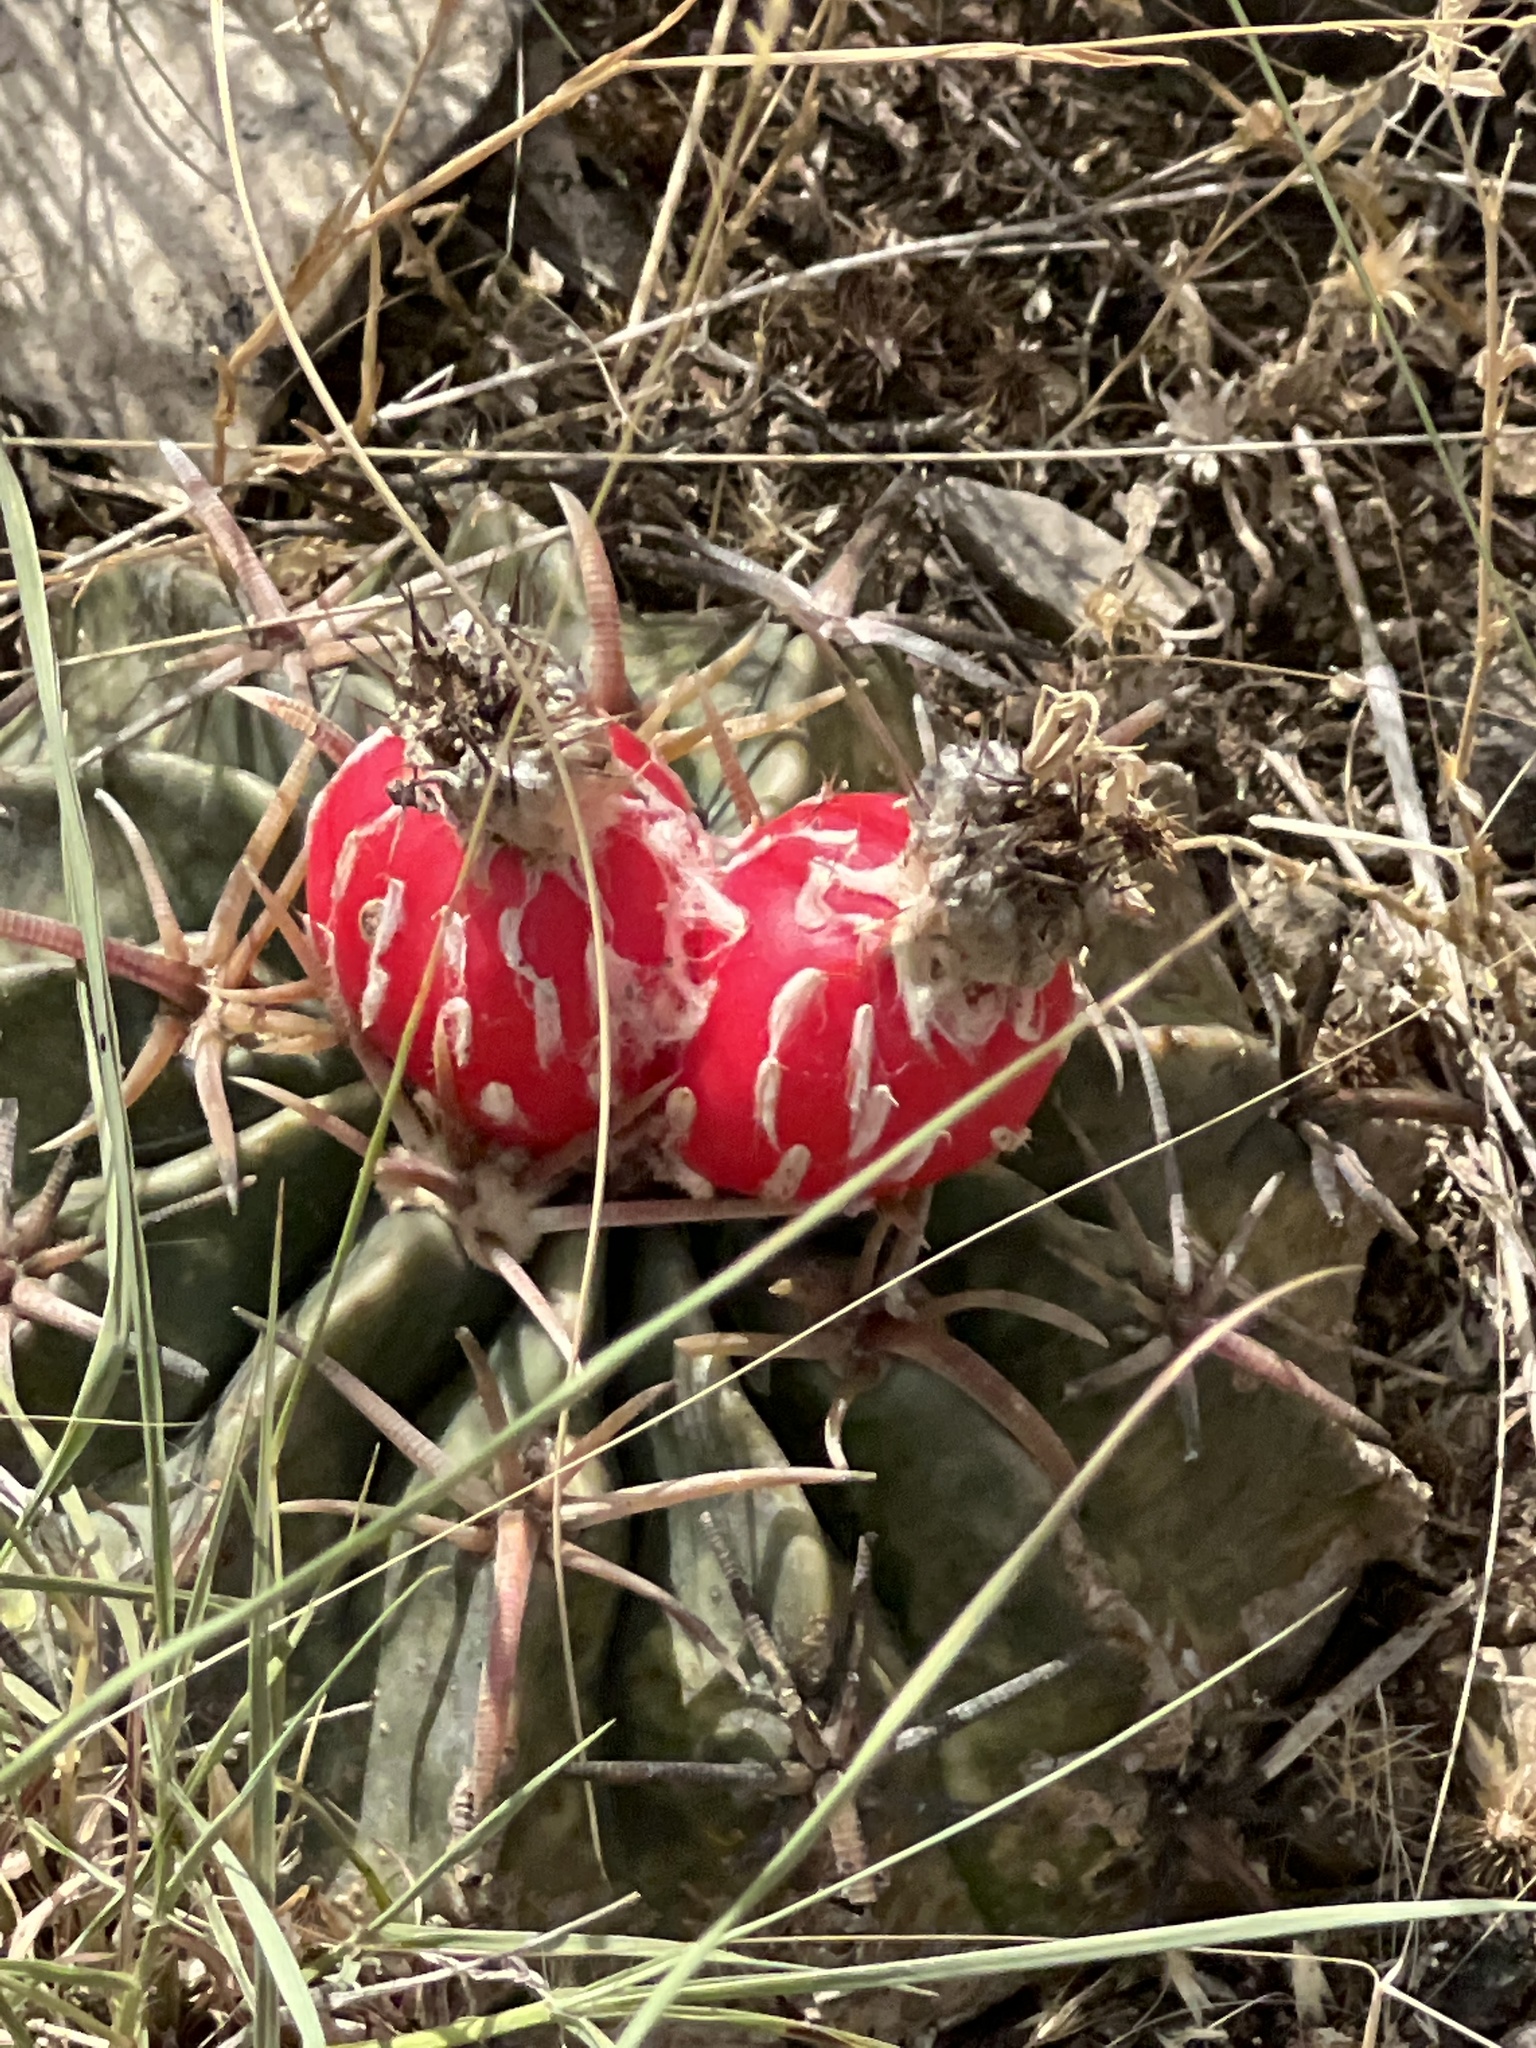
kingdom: Plantae
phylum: Tracheophyta
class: Magnoliopsida
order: Caryophyllales
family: Cactaceae
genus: Echinocactus
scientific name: Echinocactus texensis
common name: Devil's pincushion
